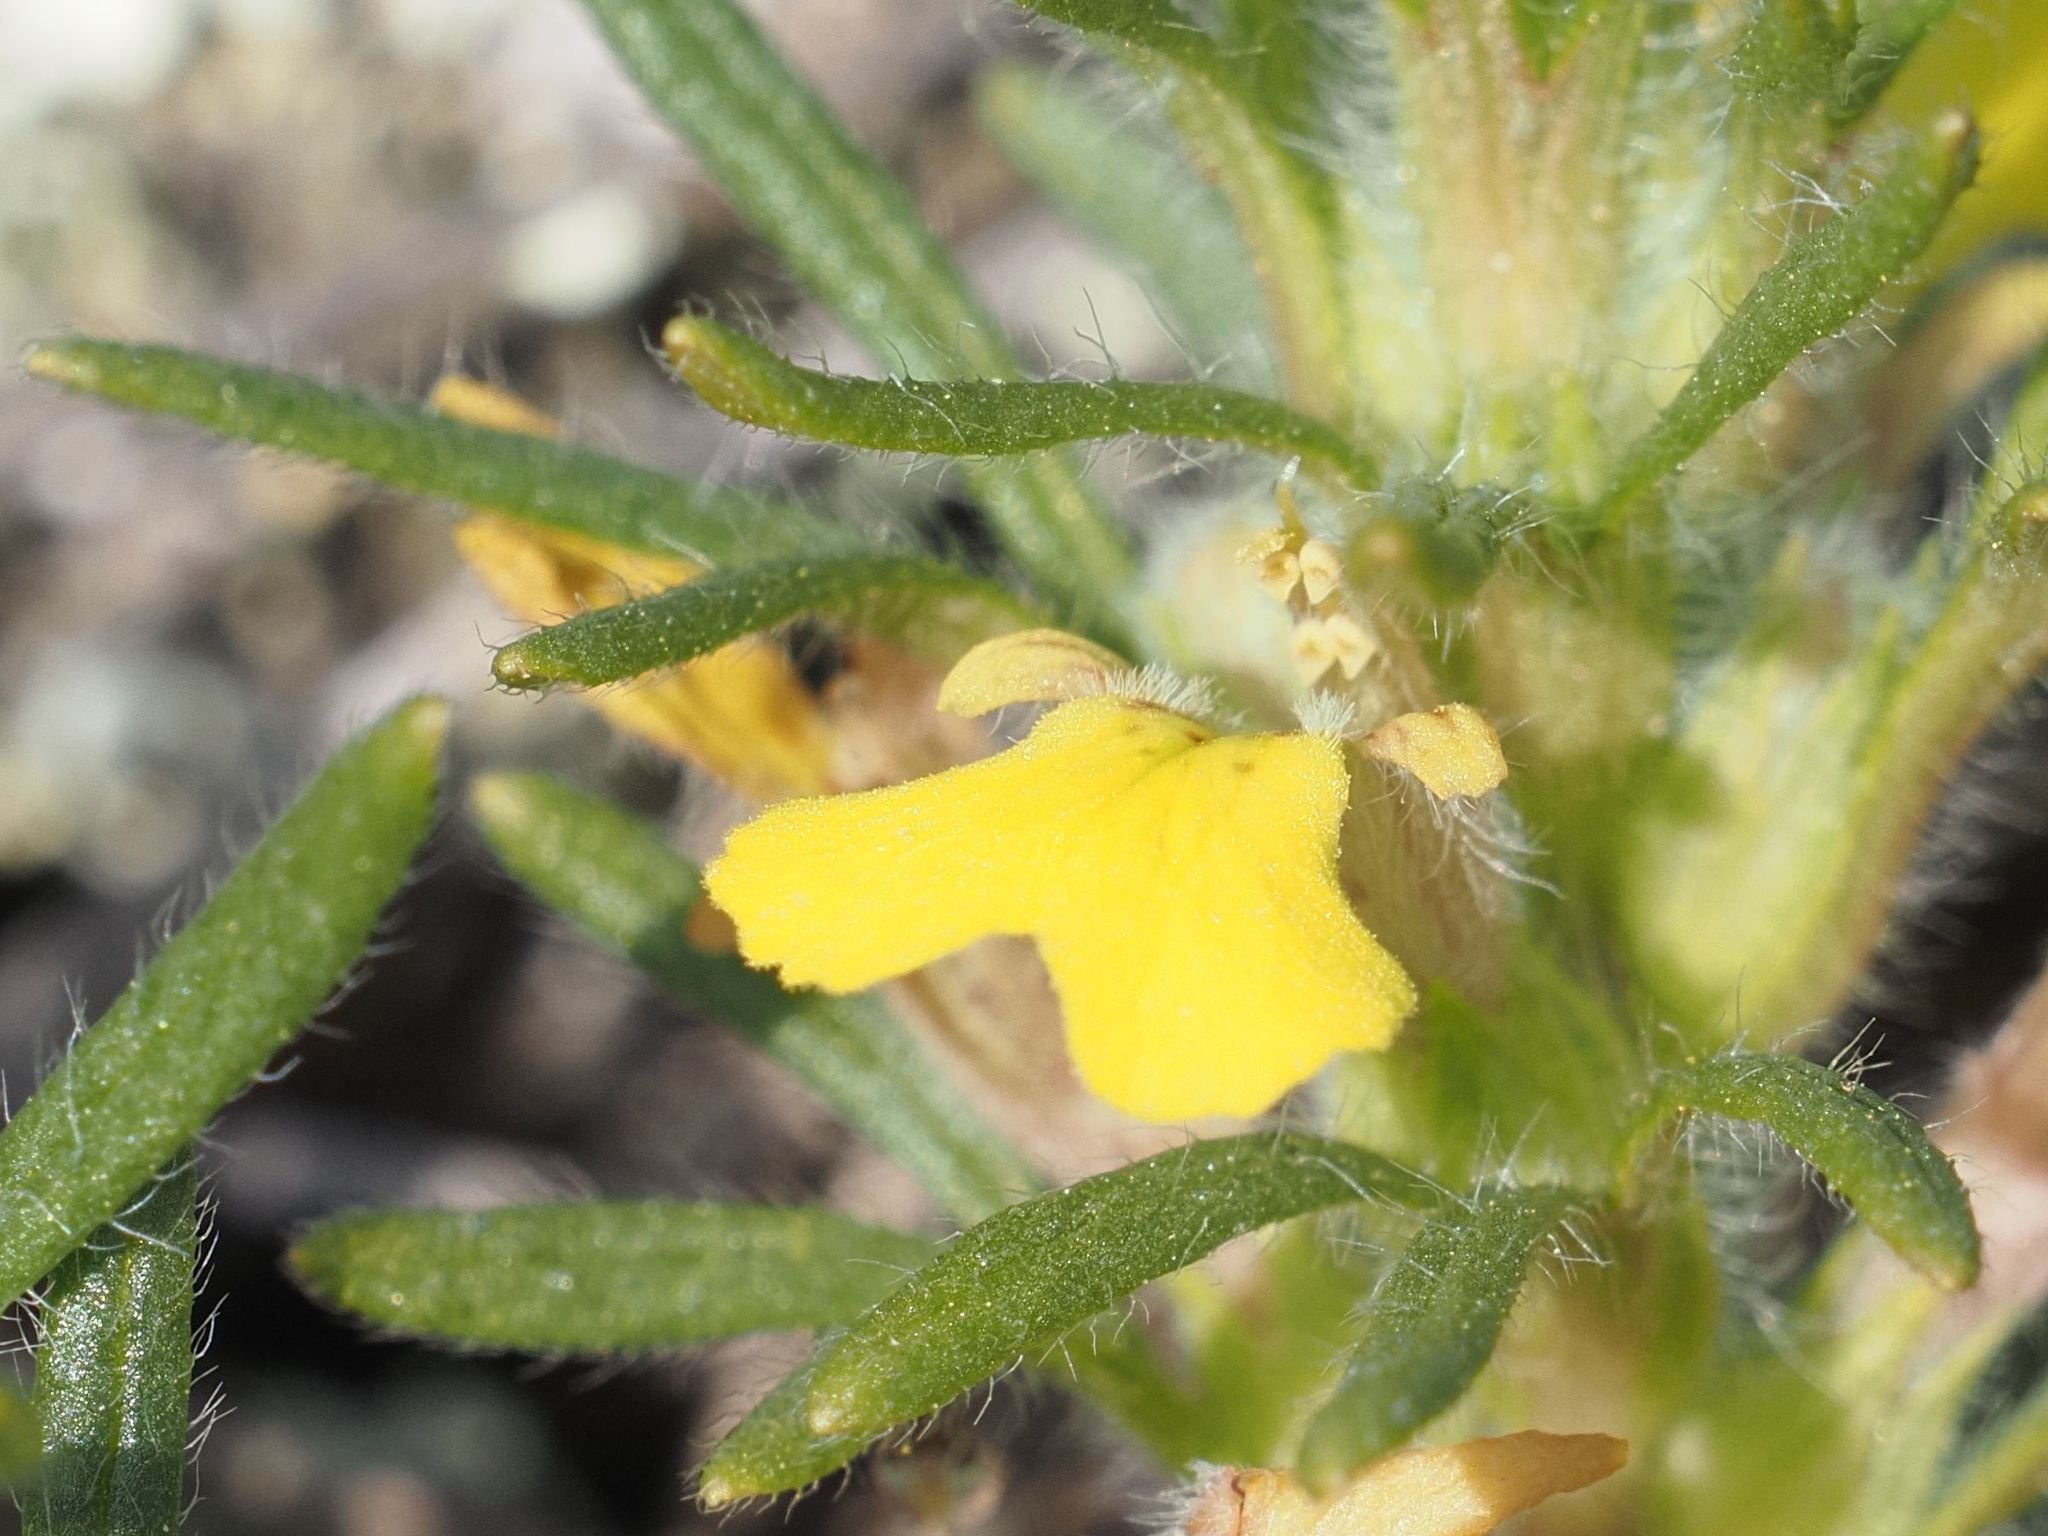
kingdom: Plantae
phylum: Tracheophyta
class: Magnoliopsida
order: Lamiales
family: Lamiaceae
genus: Ajuga
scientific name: Ajuga chamaepitys
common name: Ground-pine
